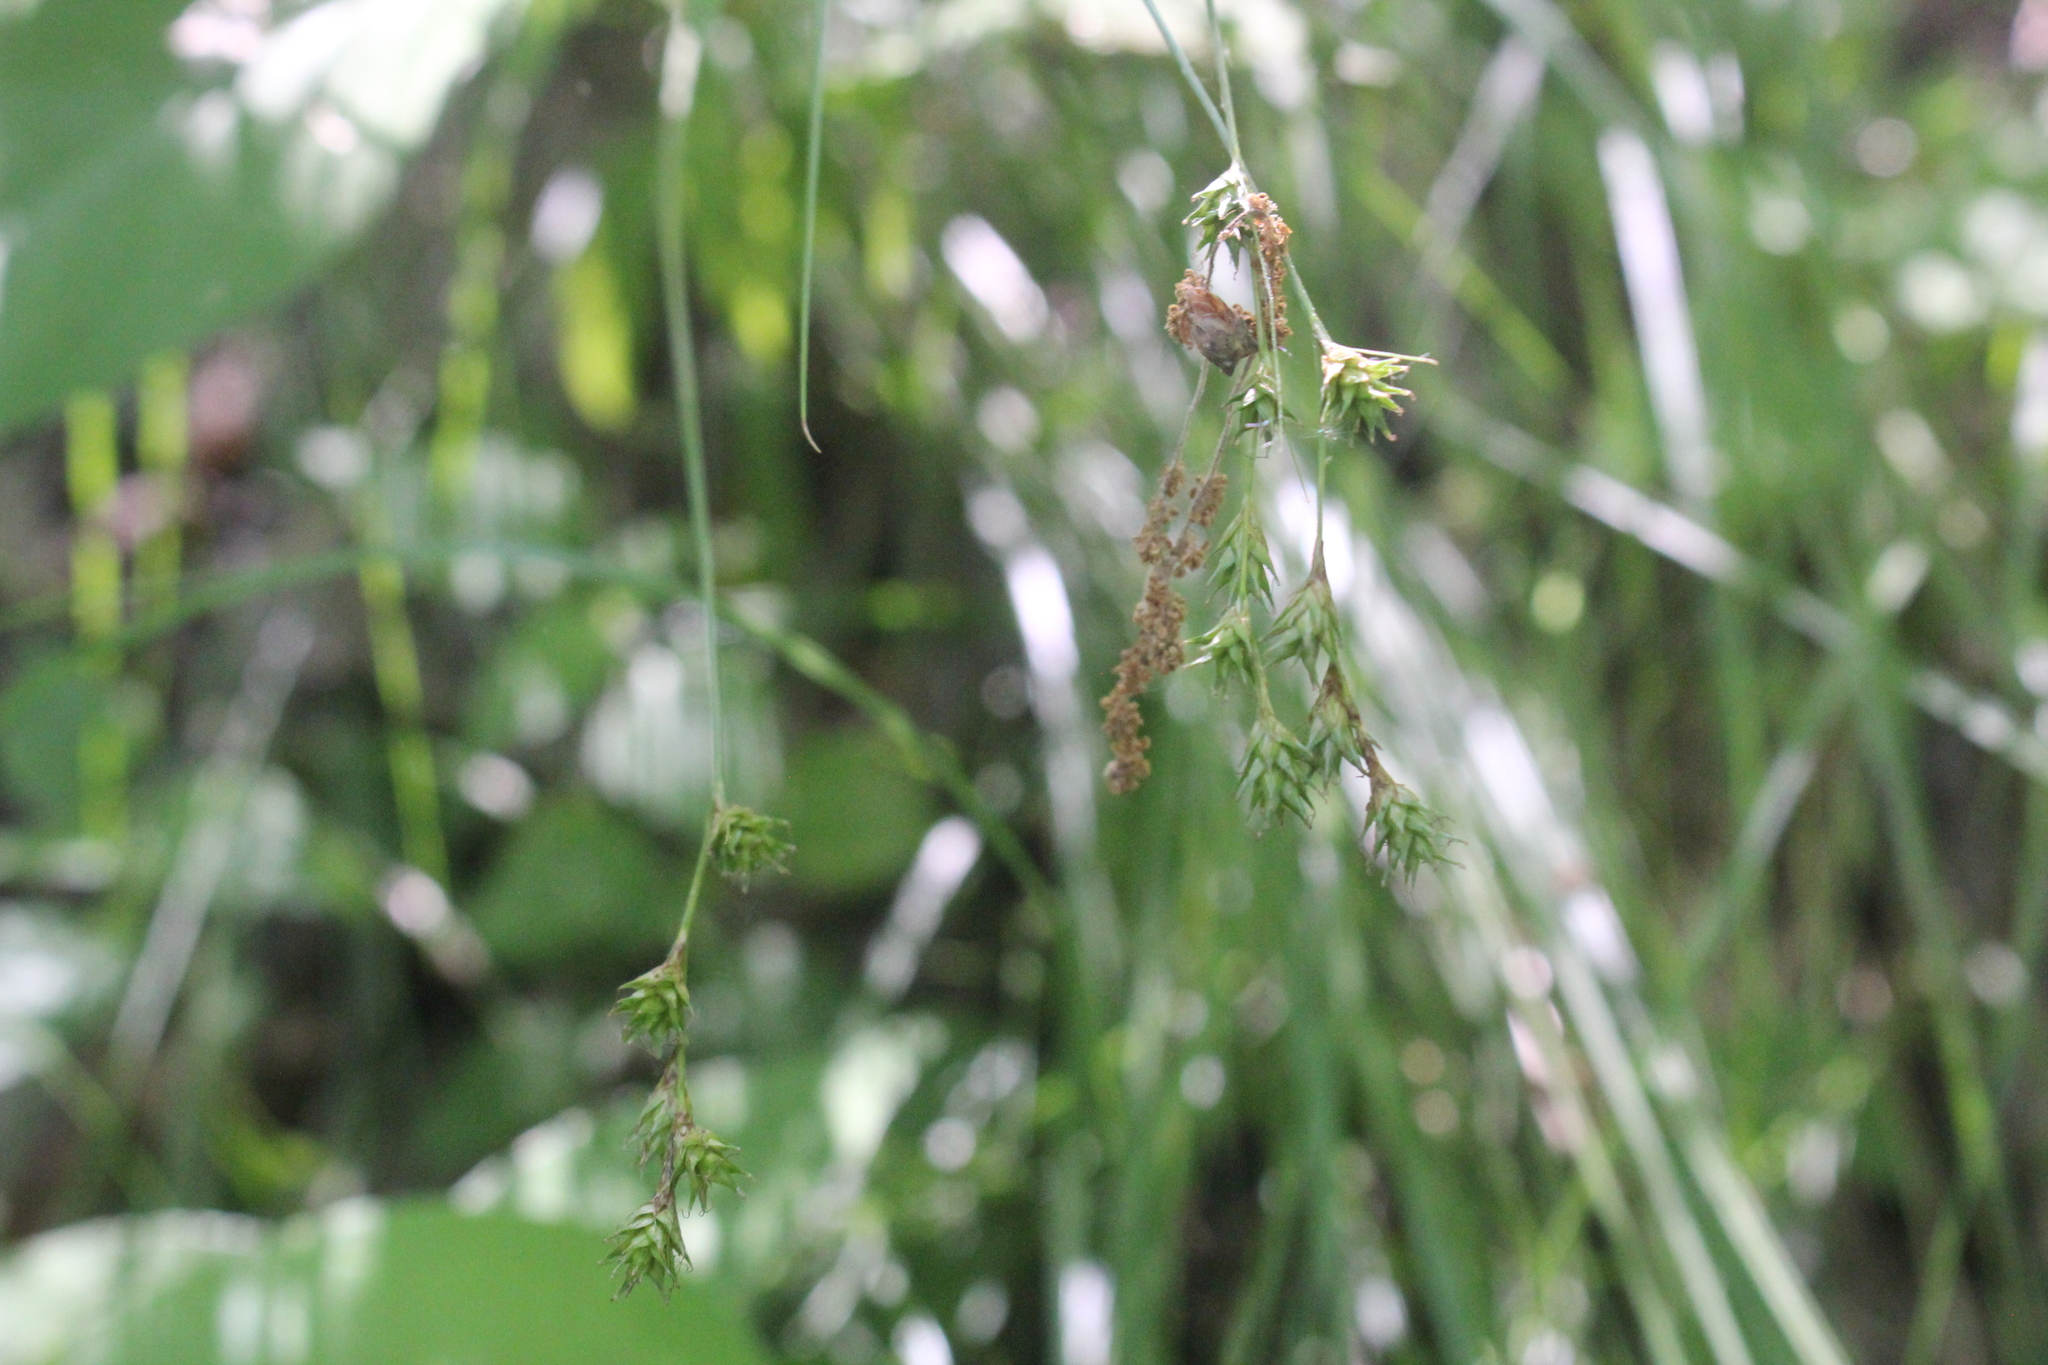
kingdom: Plantae
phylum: Tracheophyta
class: Liliopsida
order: Poales
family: Cyperaceae
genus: Carex
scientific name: Carex echinodes
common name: Marsh straw sedge
